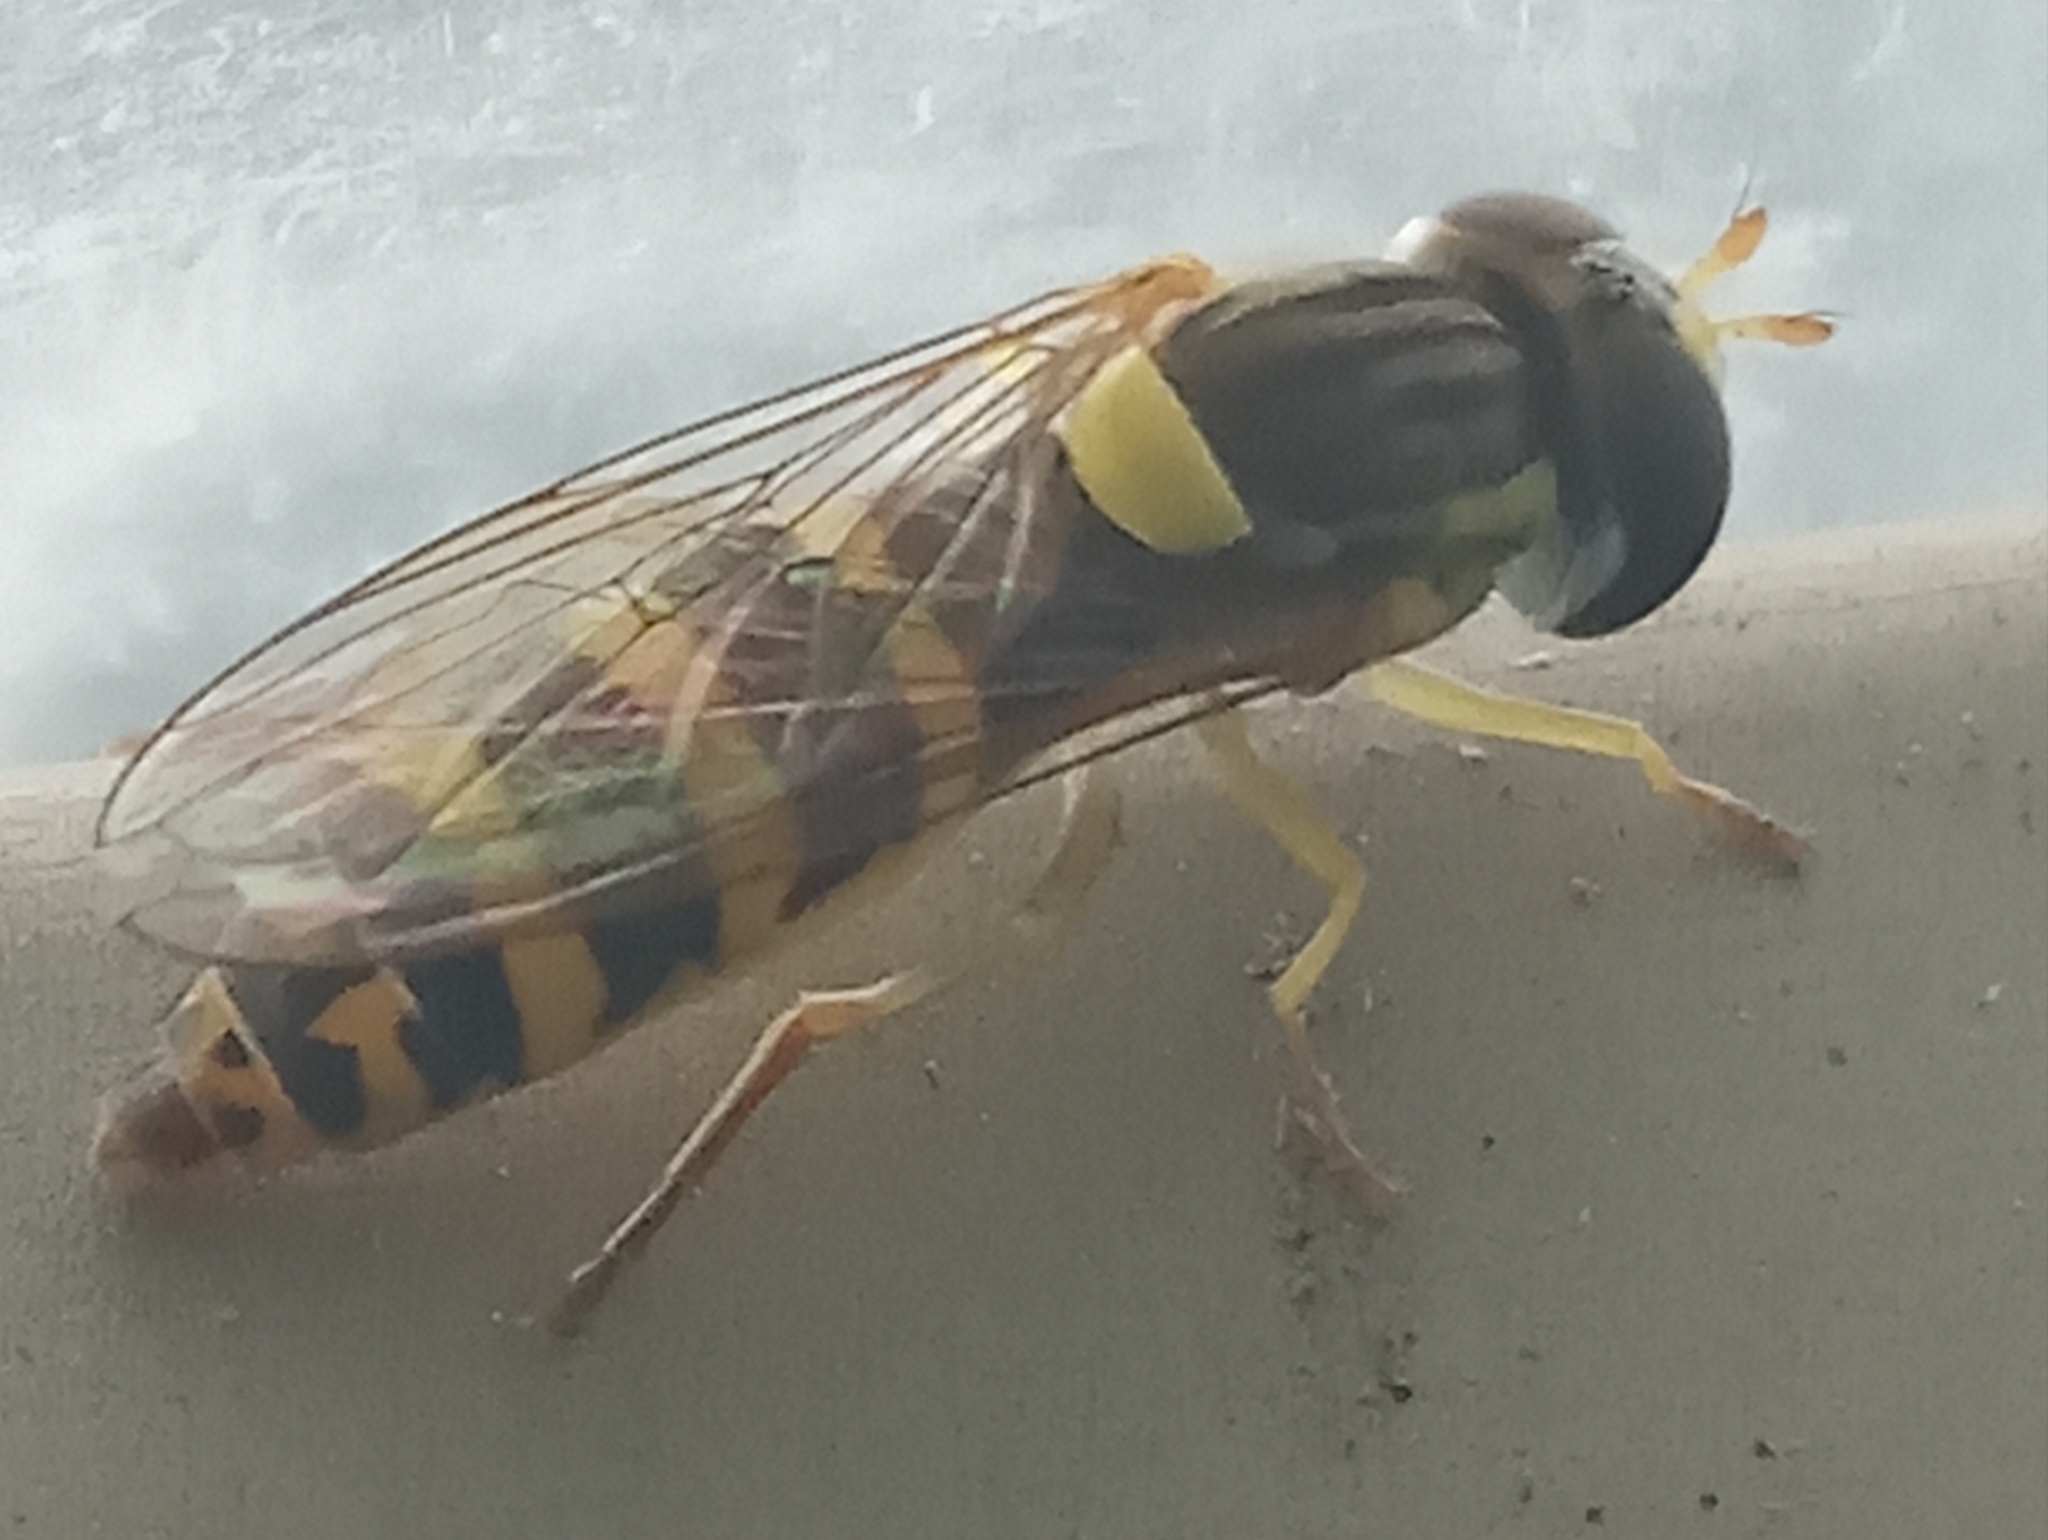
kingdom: Animalia
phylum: Arthropoda
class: Insecta
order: Diptera
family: Syrphidae
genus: Sphaerophoria
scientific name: Sphaerophoria
